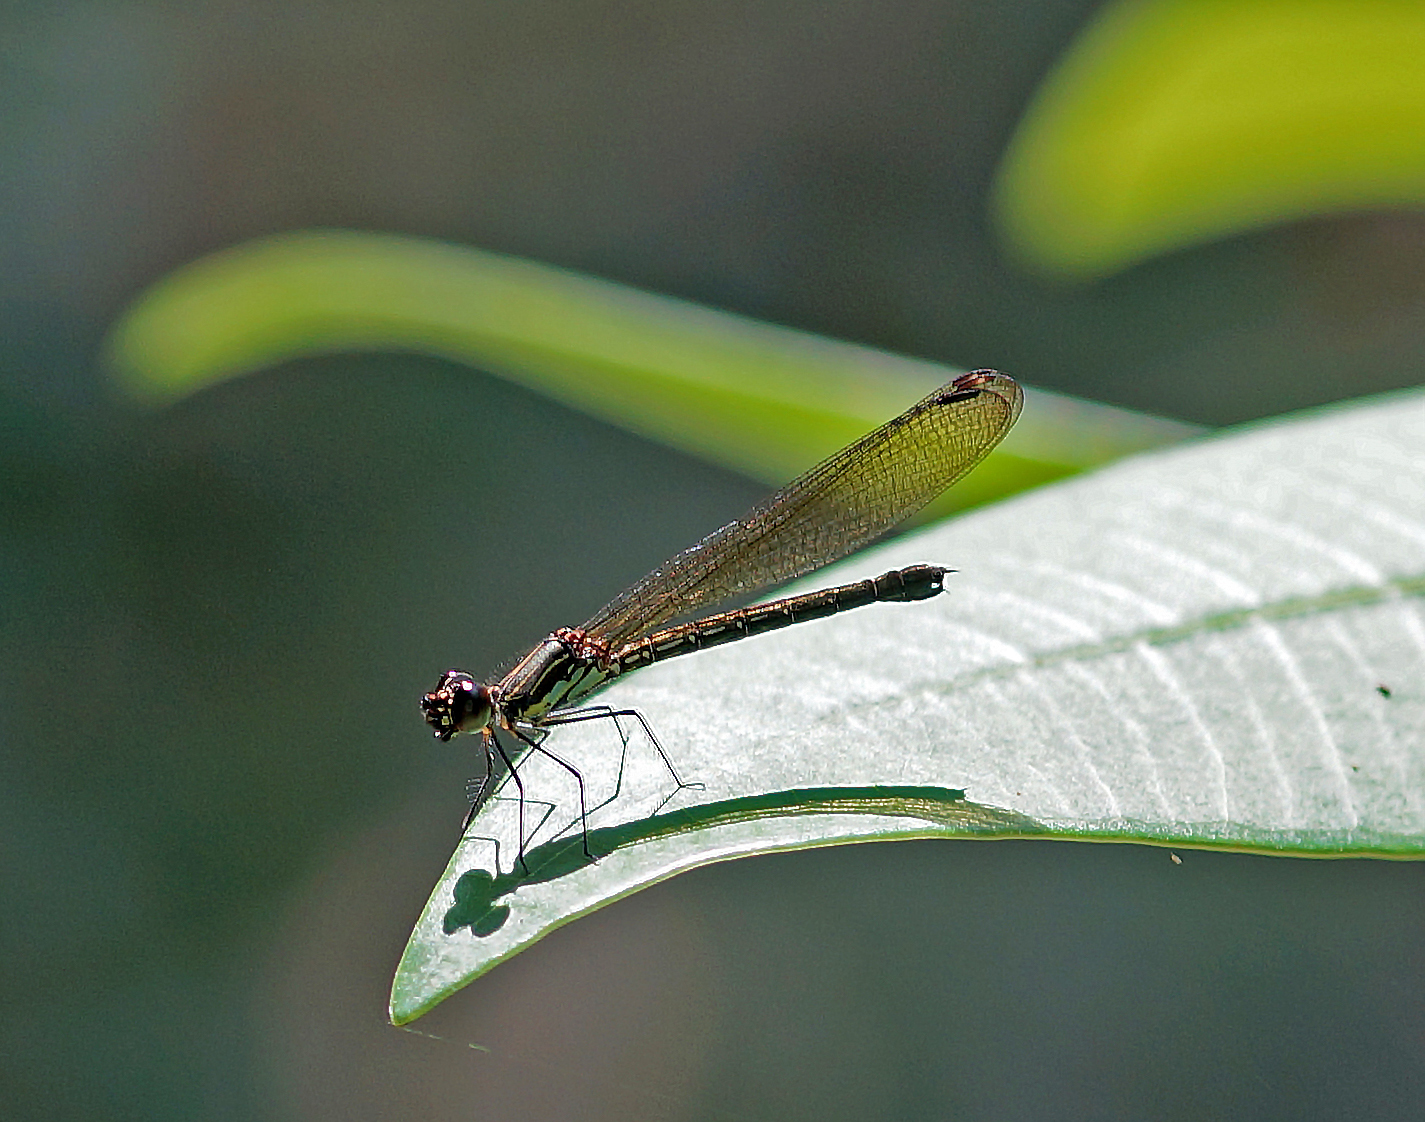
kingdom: Animalia
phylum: Arthropoda
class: Insecta
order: Odonata
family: Chlorocyphidae
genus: Heliocypha
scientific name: Heliocypha biforata
